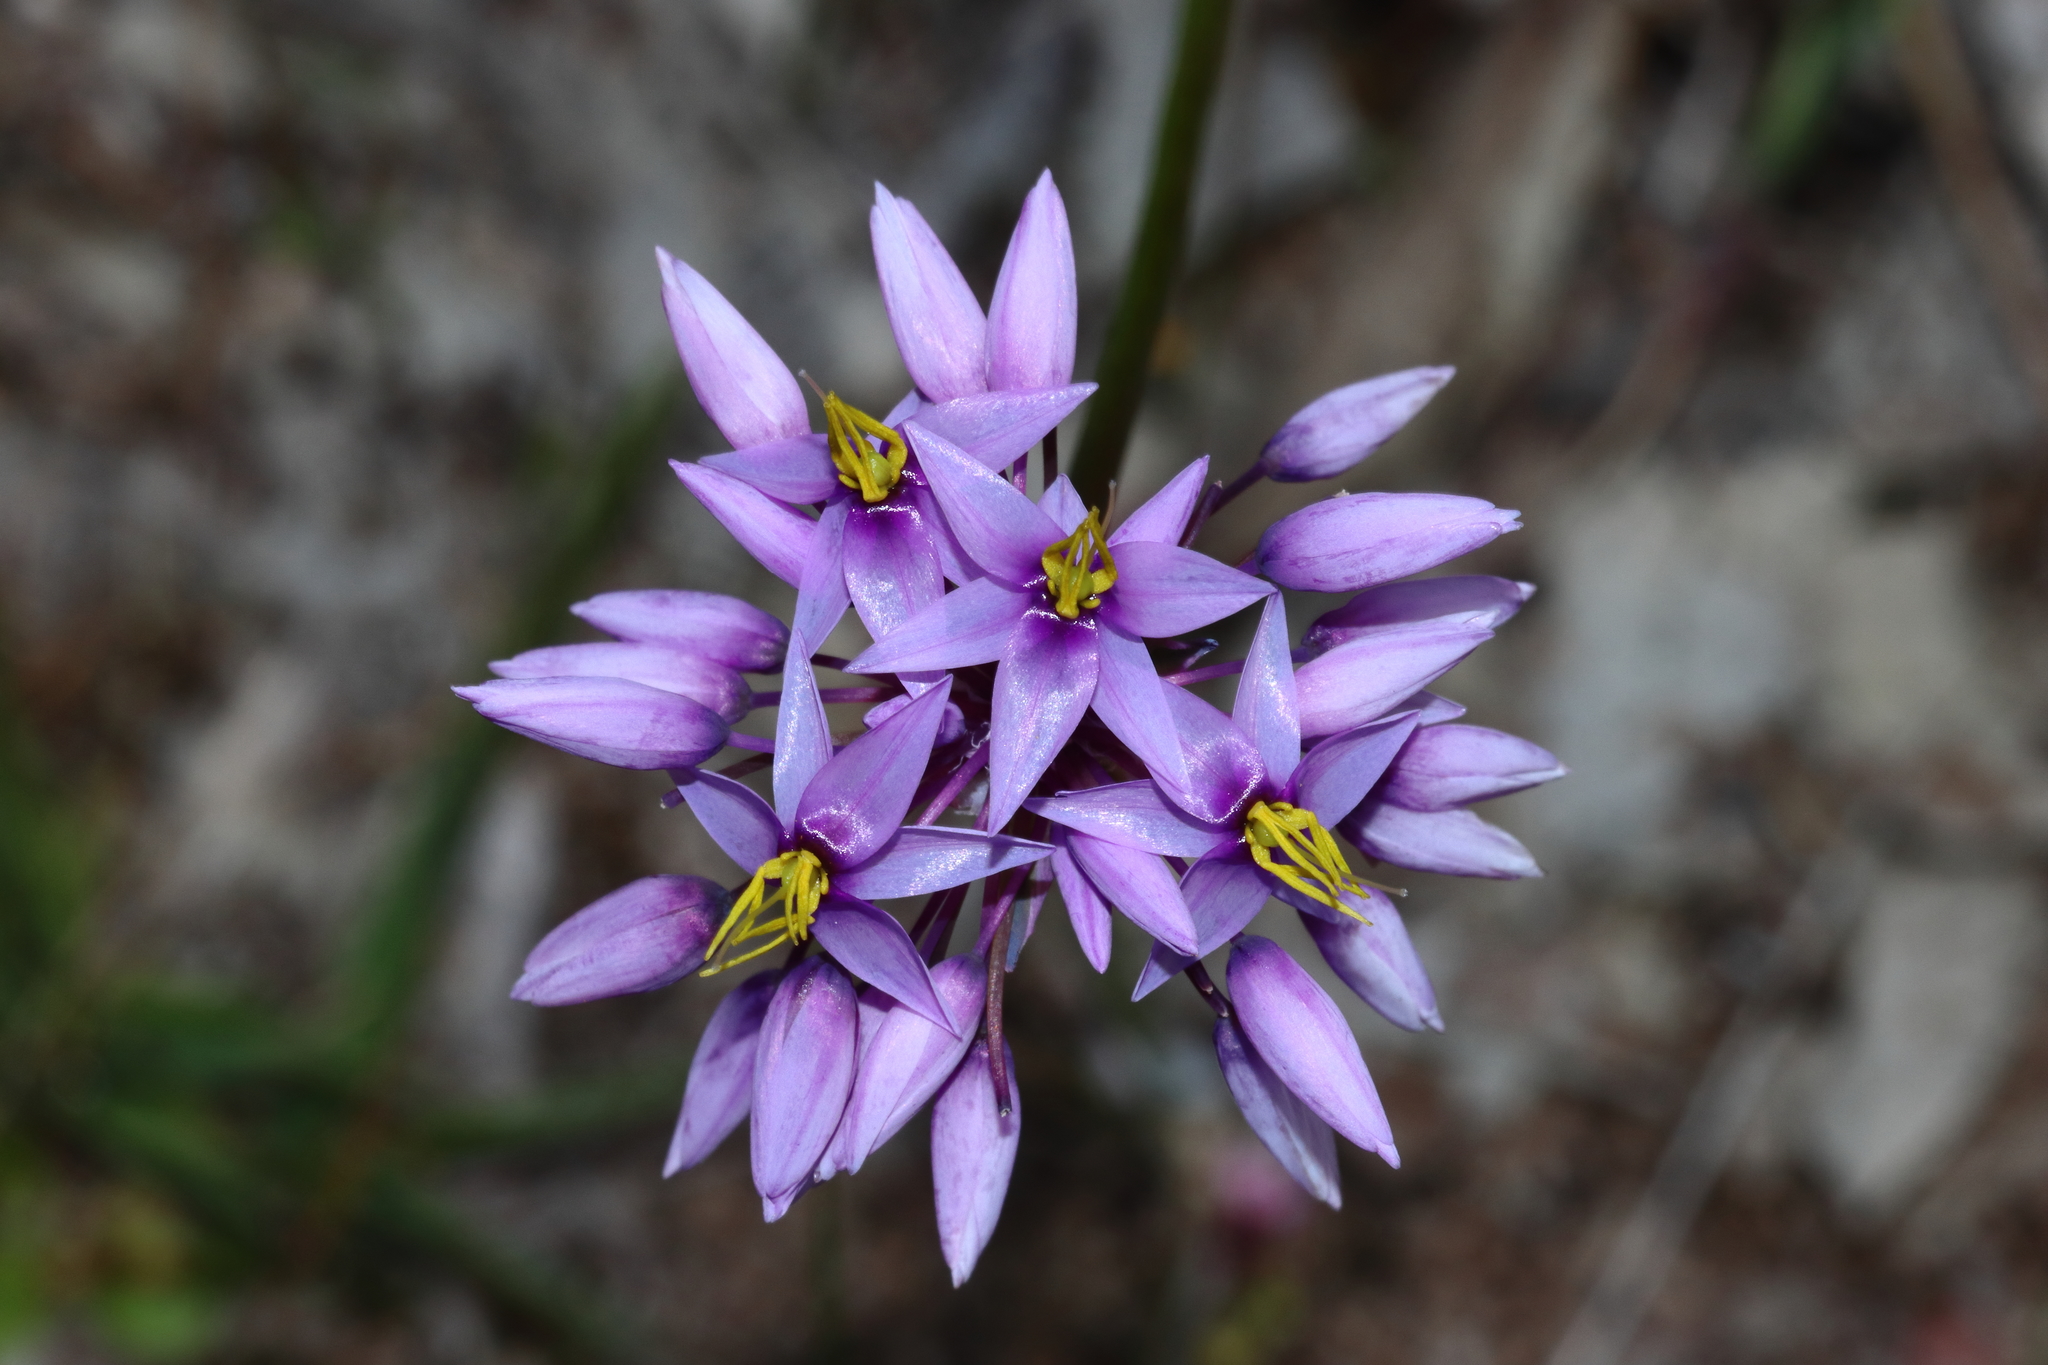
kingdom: Plantae
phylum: Tracheophyta
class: Liliopsida
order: Asparagales
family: Asparagaceae
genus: Sowerbaea
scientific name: Sowerbaea laxiflora
